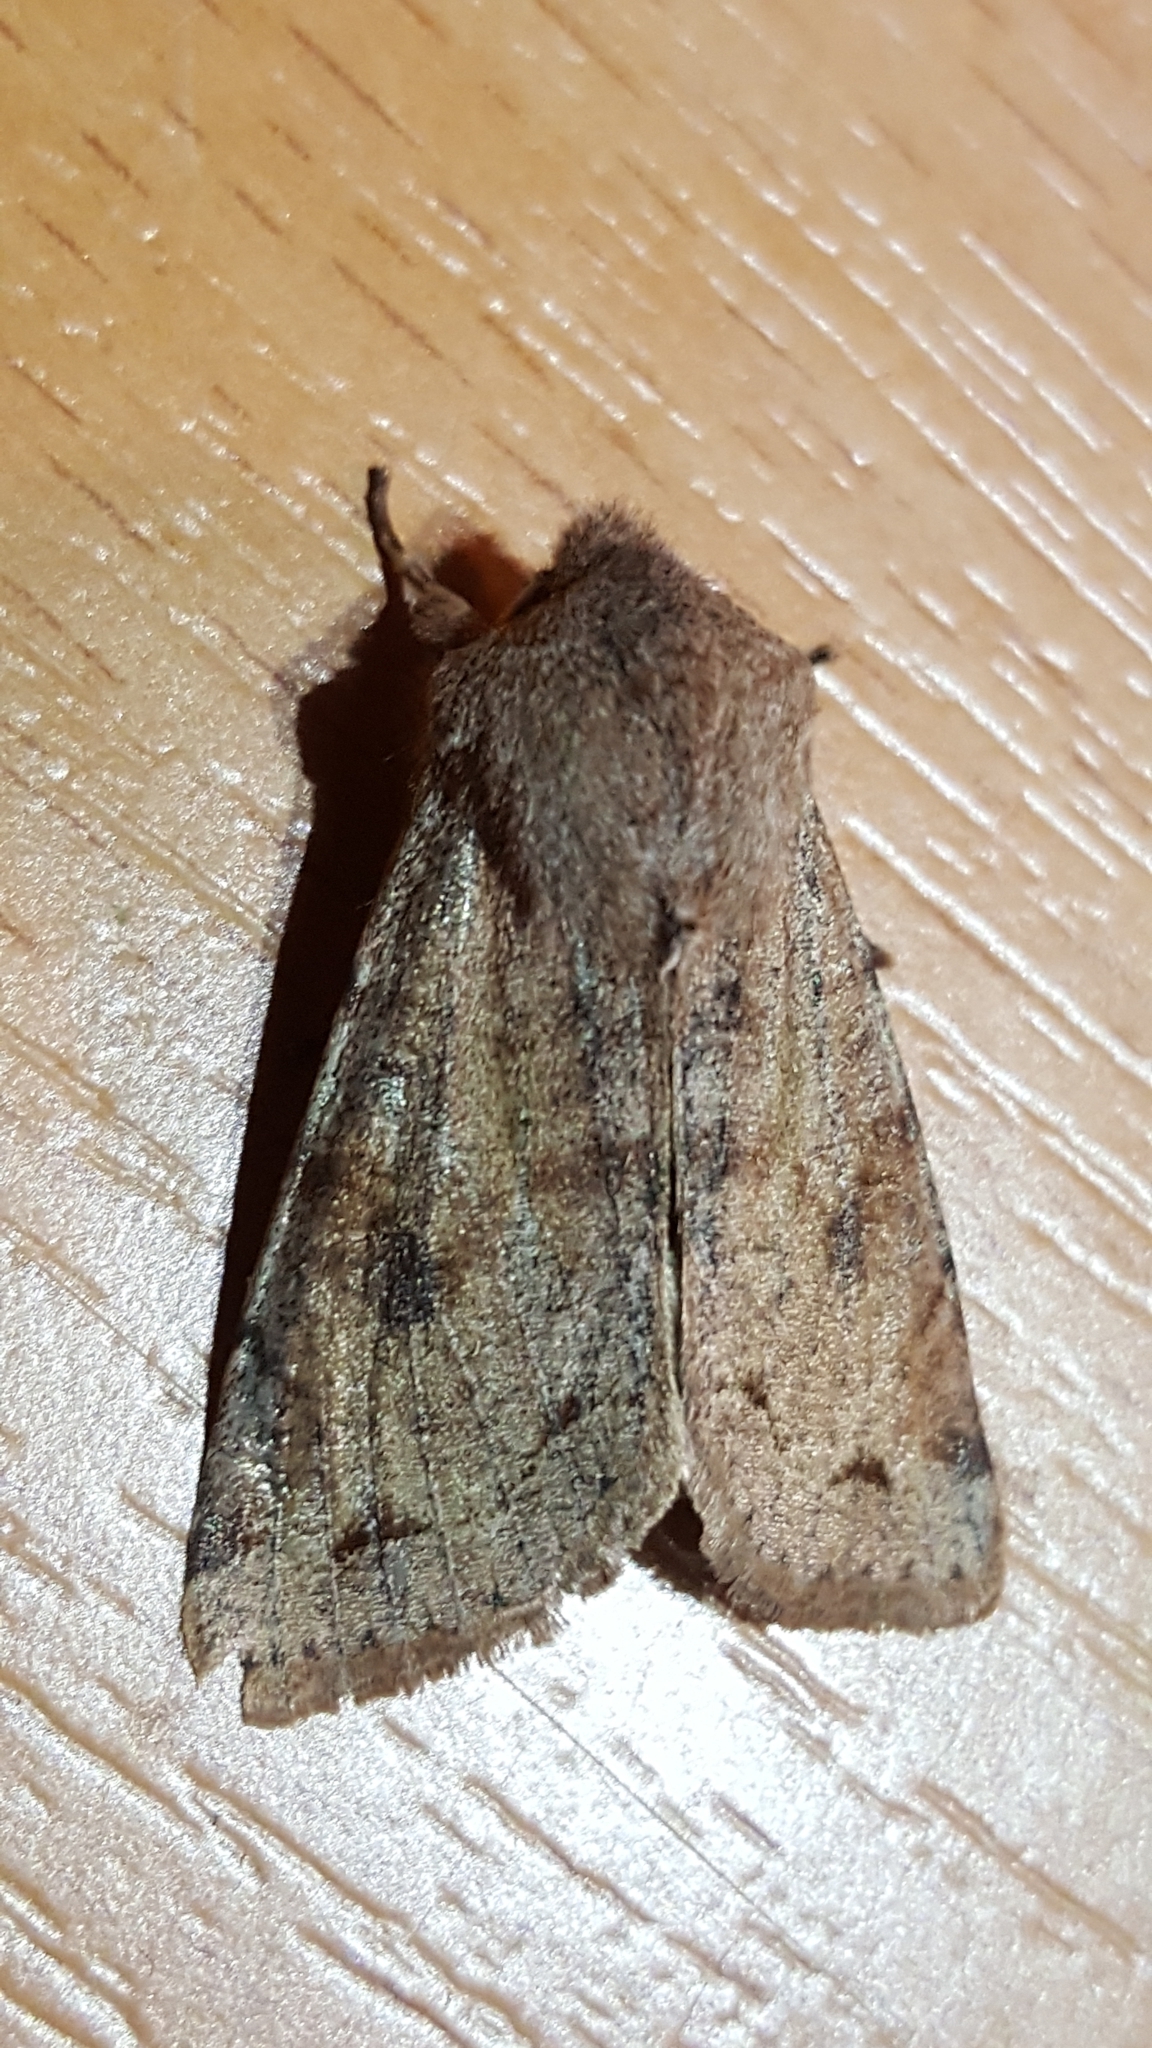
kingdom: Animalia
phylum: Arthropoda
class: Insecta
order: Lepidoptera
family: Noctuidae
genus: Orthosia
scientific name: Orthosia incerta
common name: Clouded drab
